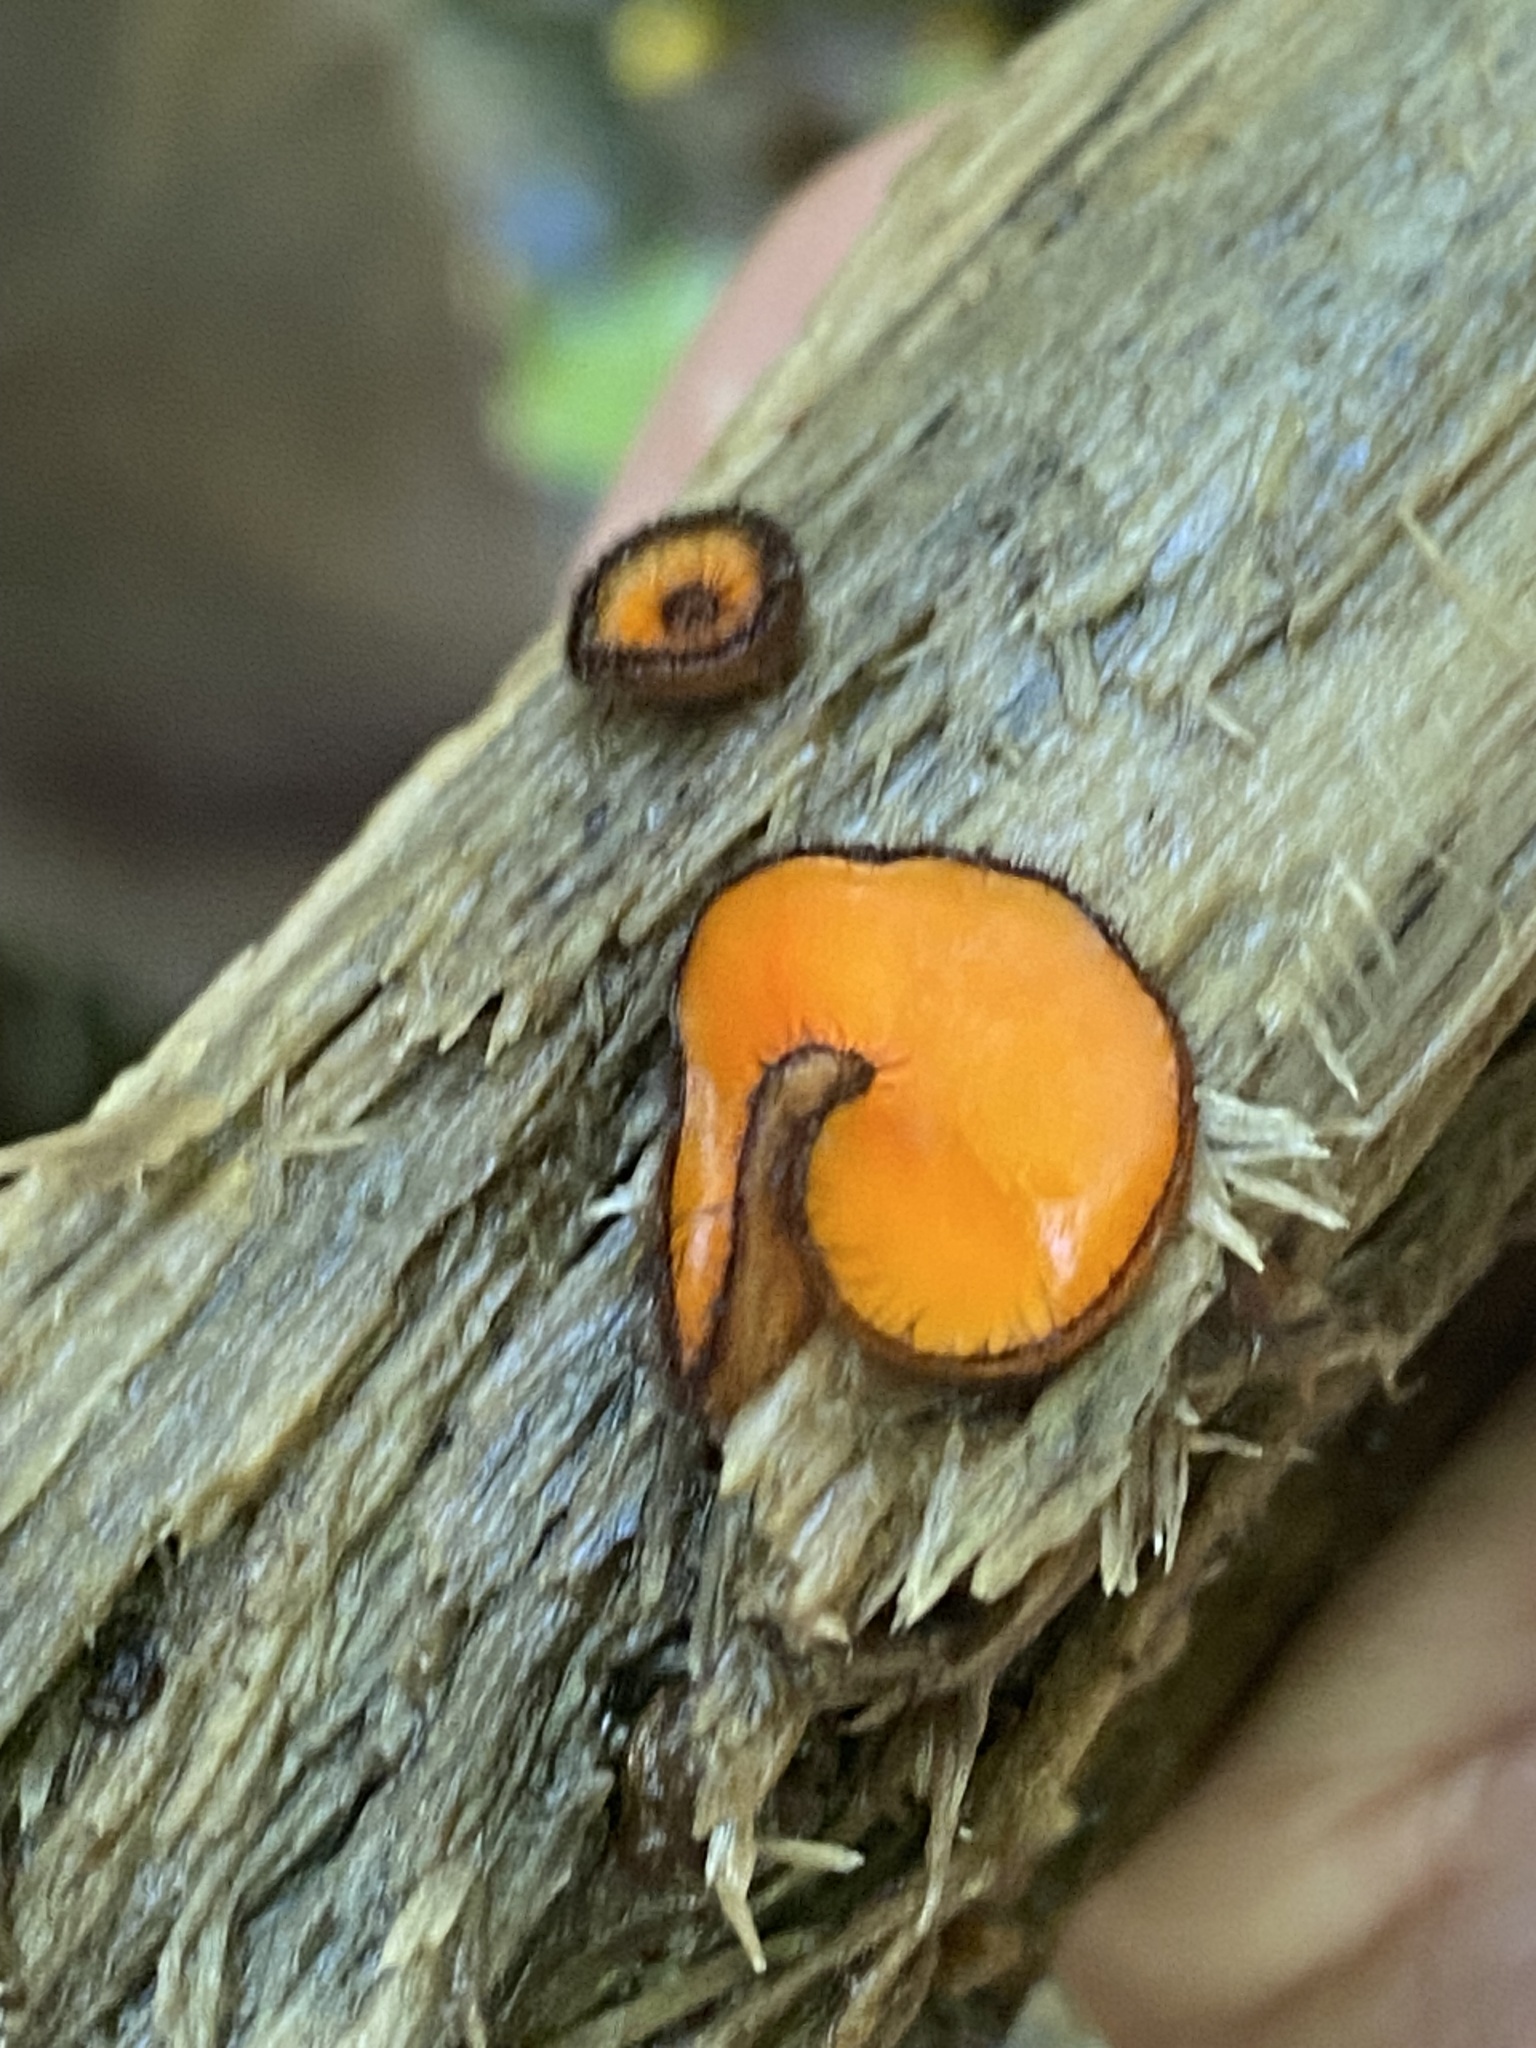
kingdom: Fungi
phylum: Ascomycota
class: Pezizomycetes
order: Pezizales
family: Pyronemataceae
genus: Scutellinia
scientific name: Scutellinia scutellata
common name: Common eyelash
